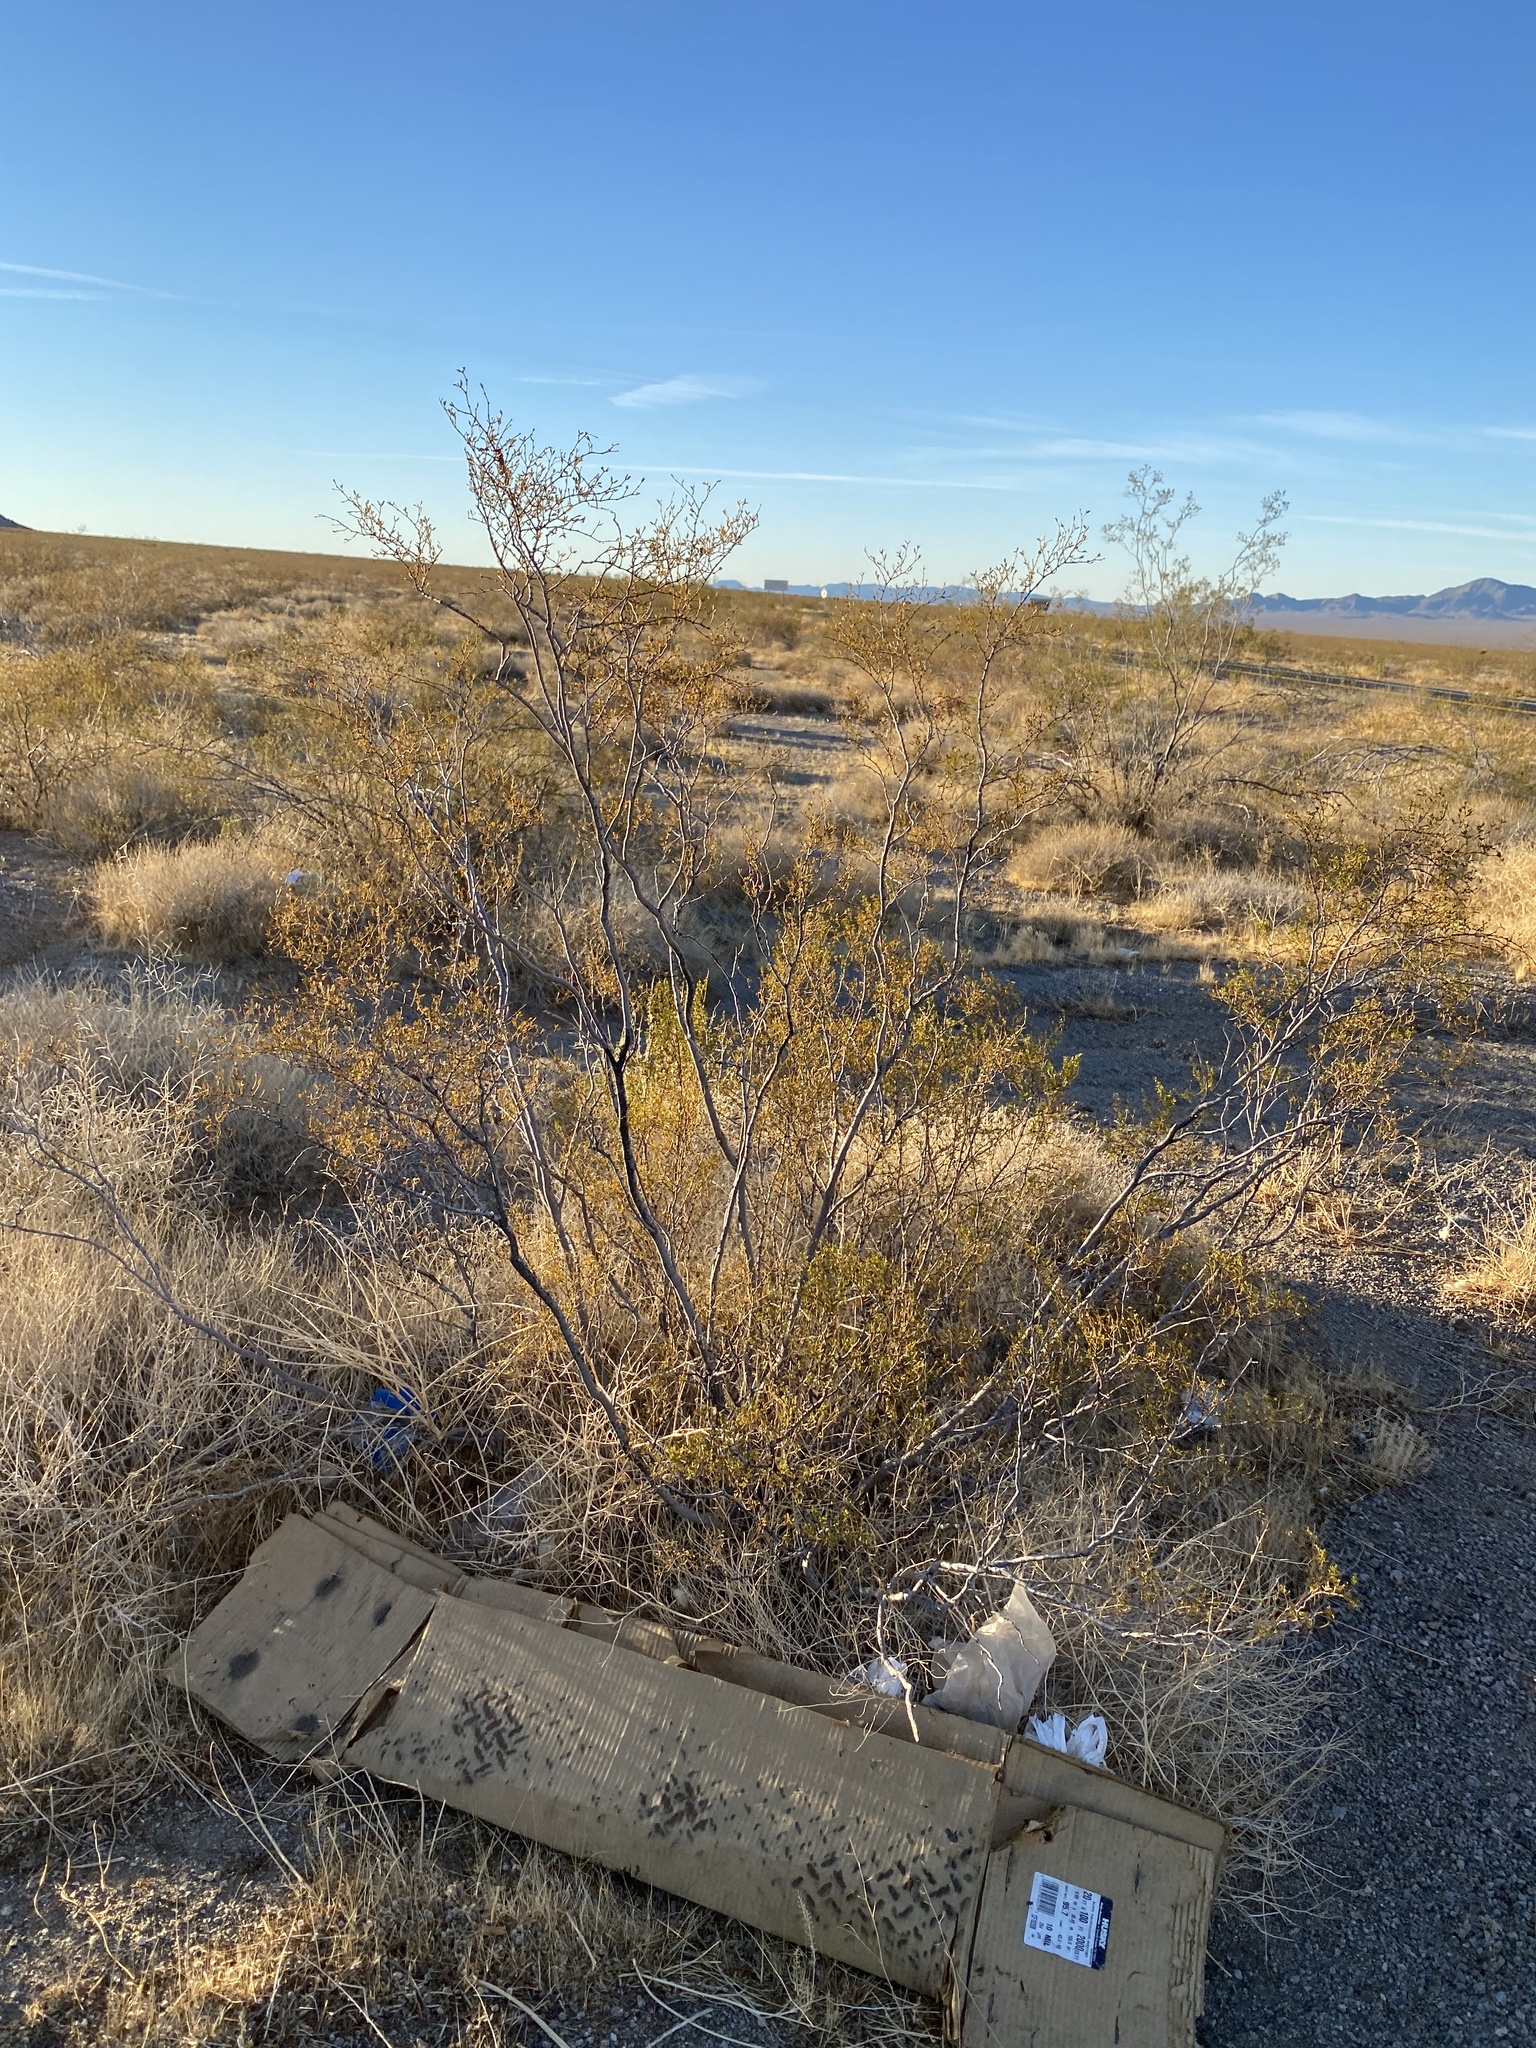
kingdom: Plantae
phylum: Tracheophyta
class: Magnoliopsida
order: Zygophyllales
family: Zygophyllaceae
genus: Larrea
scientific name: Larrea tridentata
